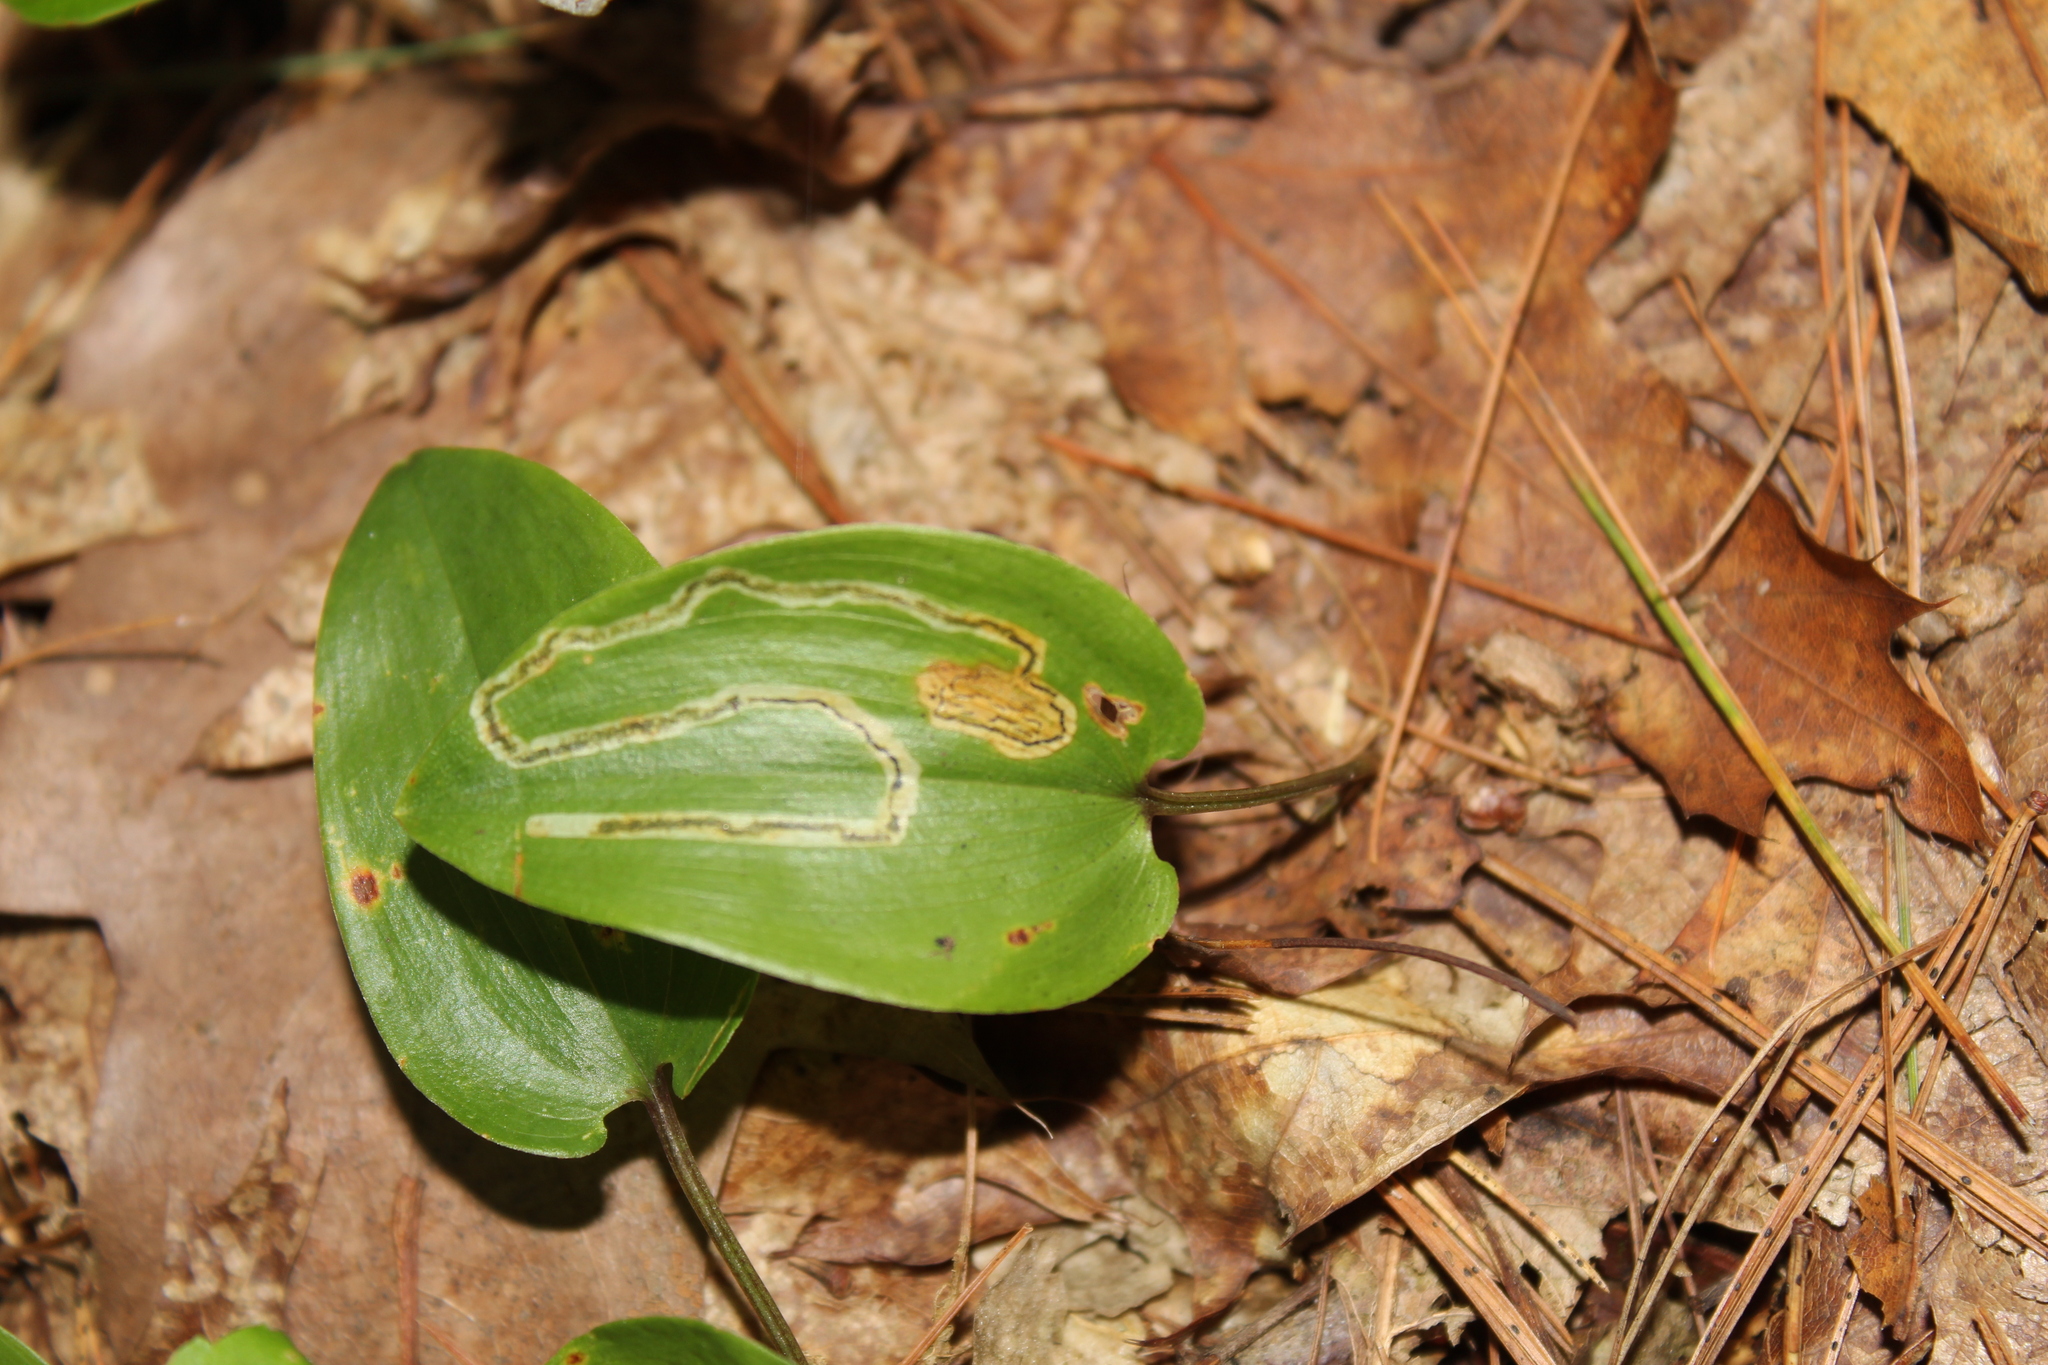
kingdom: Plantae
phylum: Tracheophyta
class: Liliopsida
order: Asparagales
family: Asparagaceae
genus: Maianthemum
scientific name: Maianthemum canadense
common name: False lily-of-the-valley
